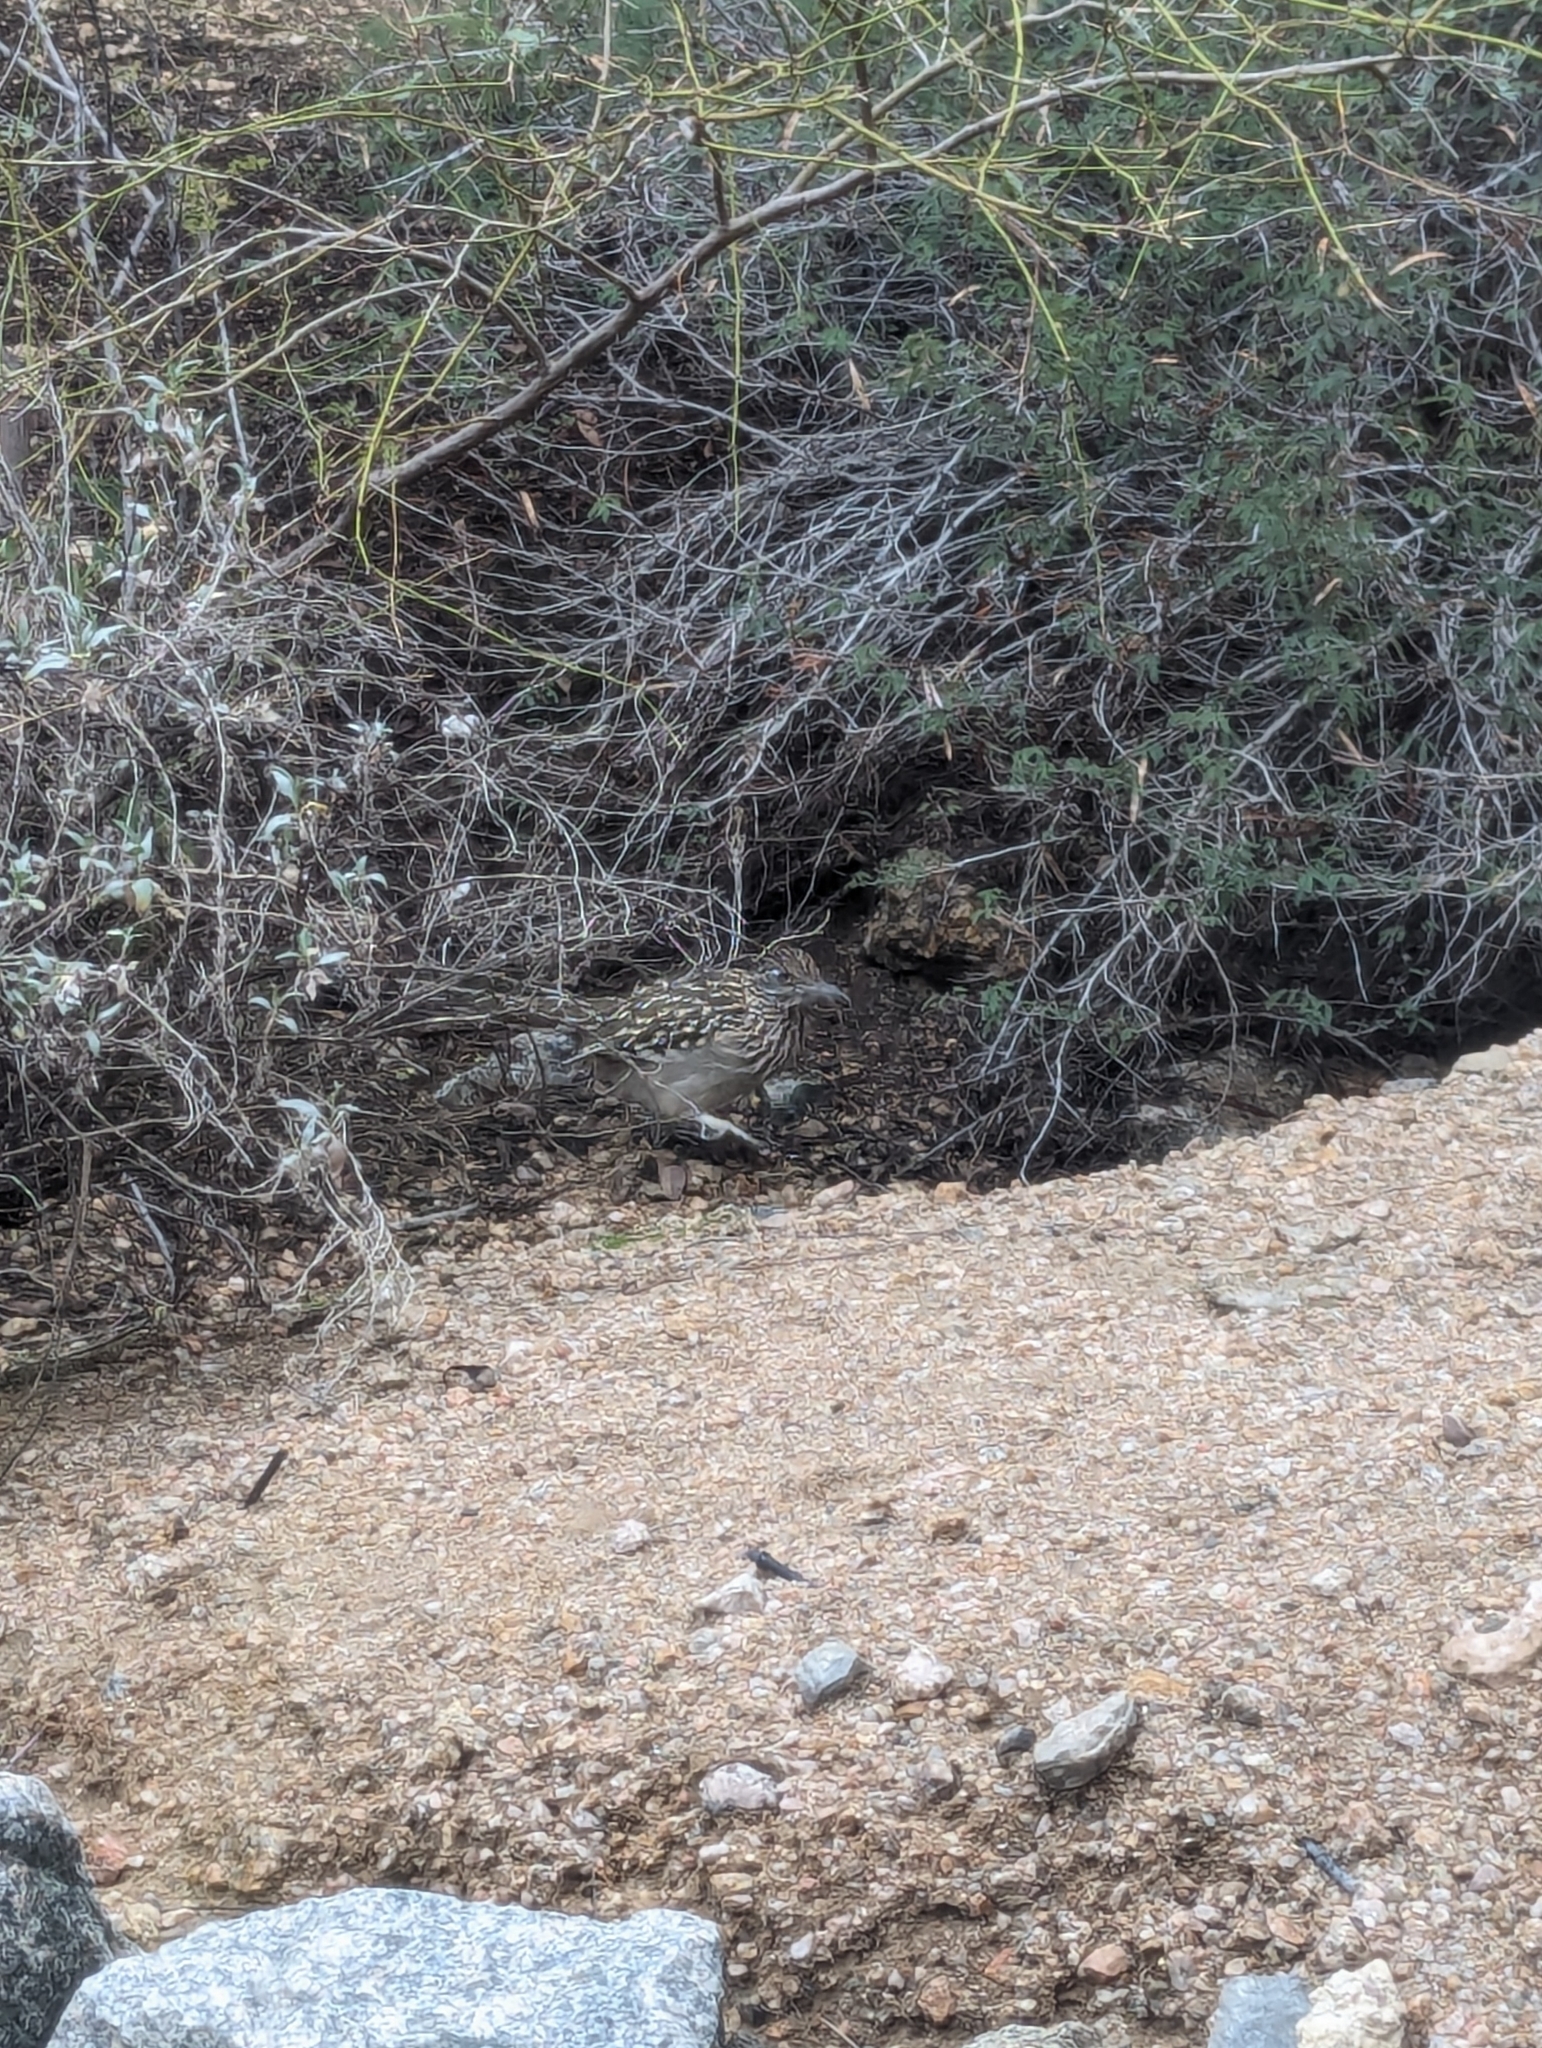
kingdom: Animalia
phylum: Chordata
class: Aves
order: Cuculiformes
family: Cuculidae
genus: Geococcyx
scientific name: Geococcyx californianus
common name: Greater roadrunner
